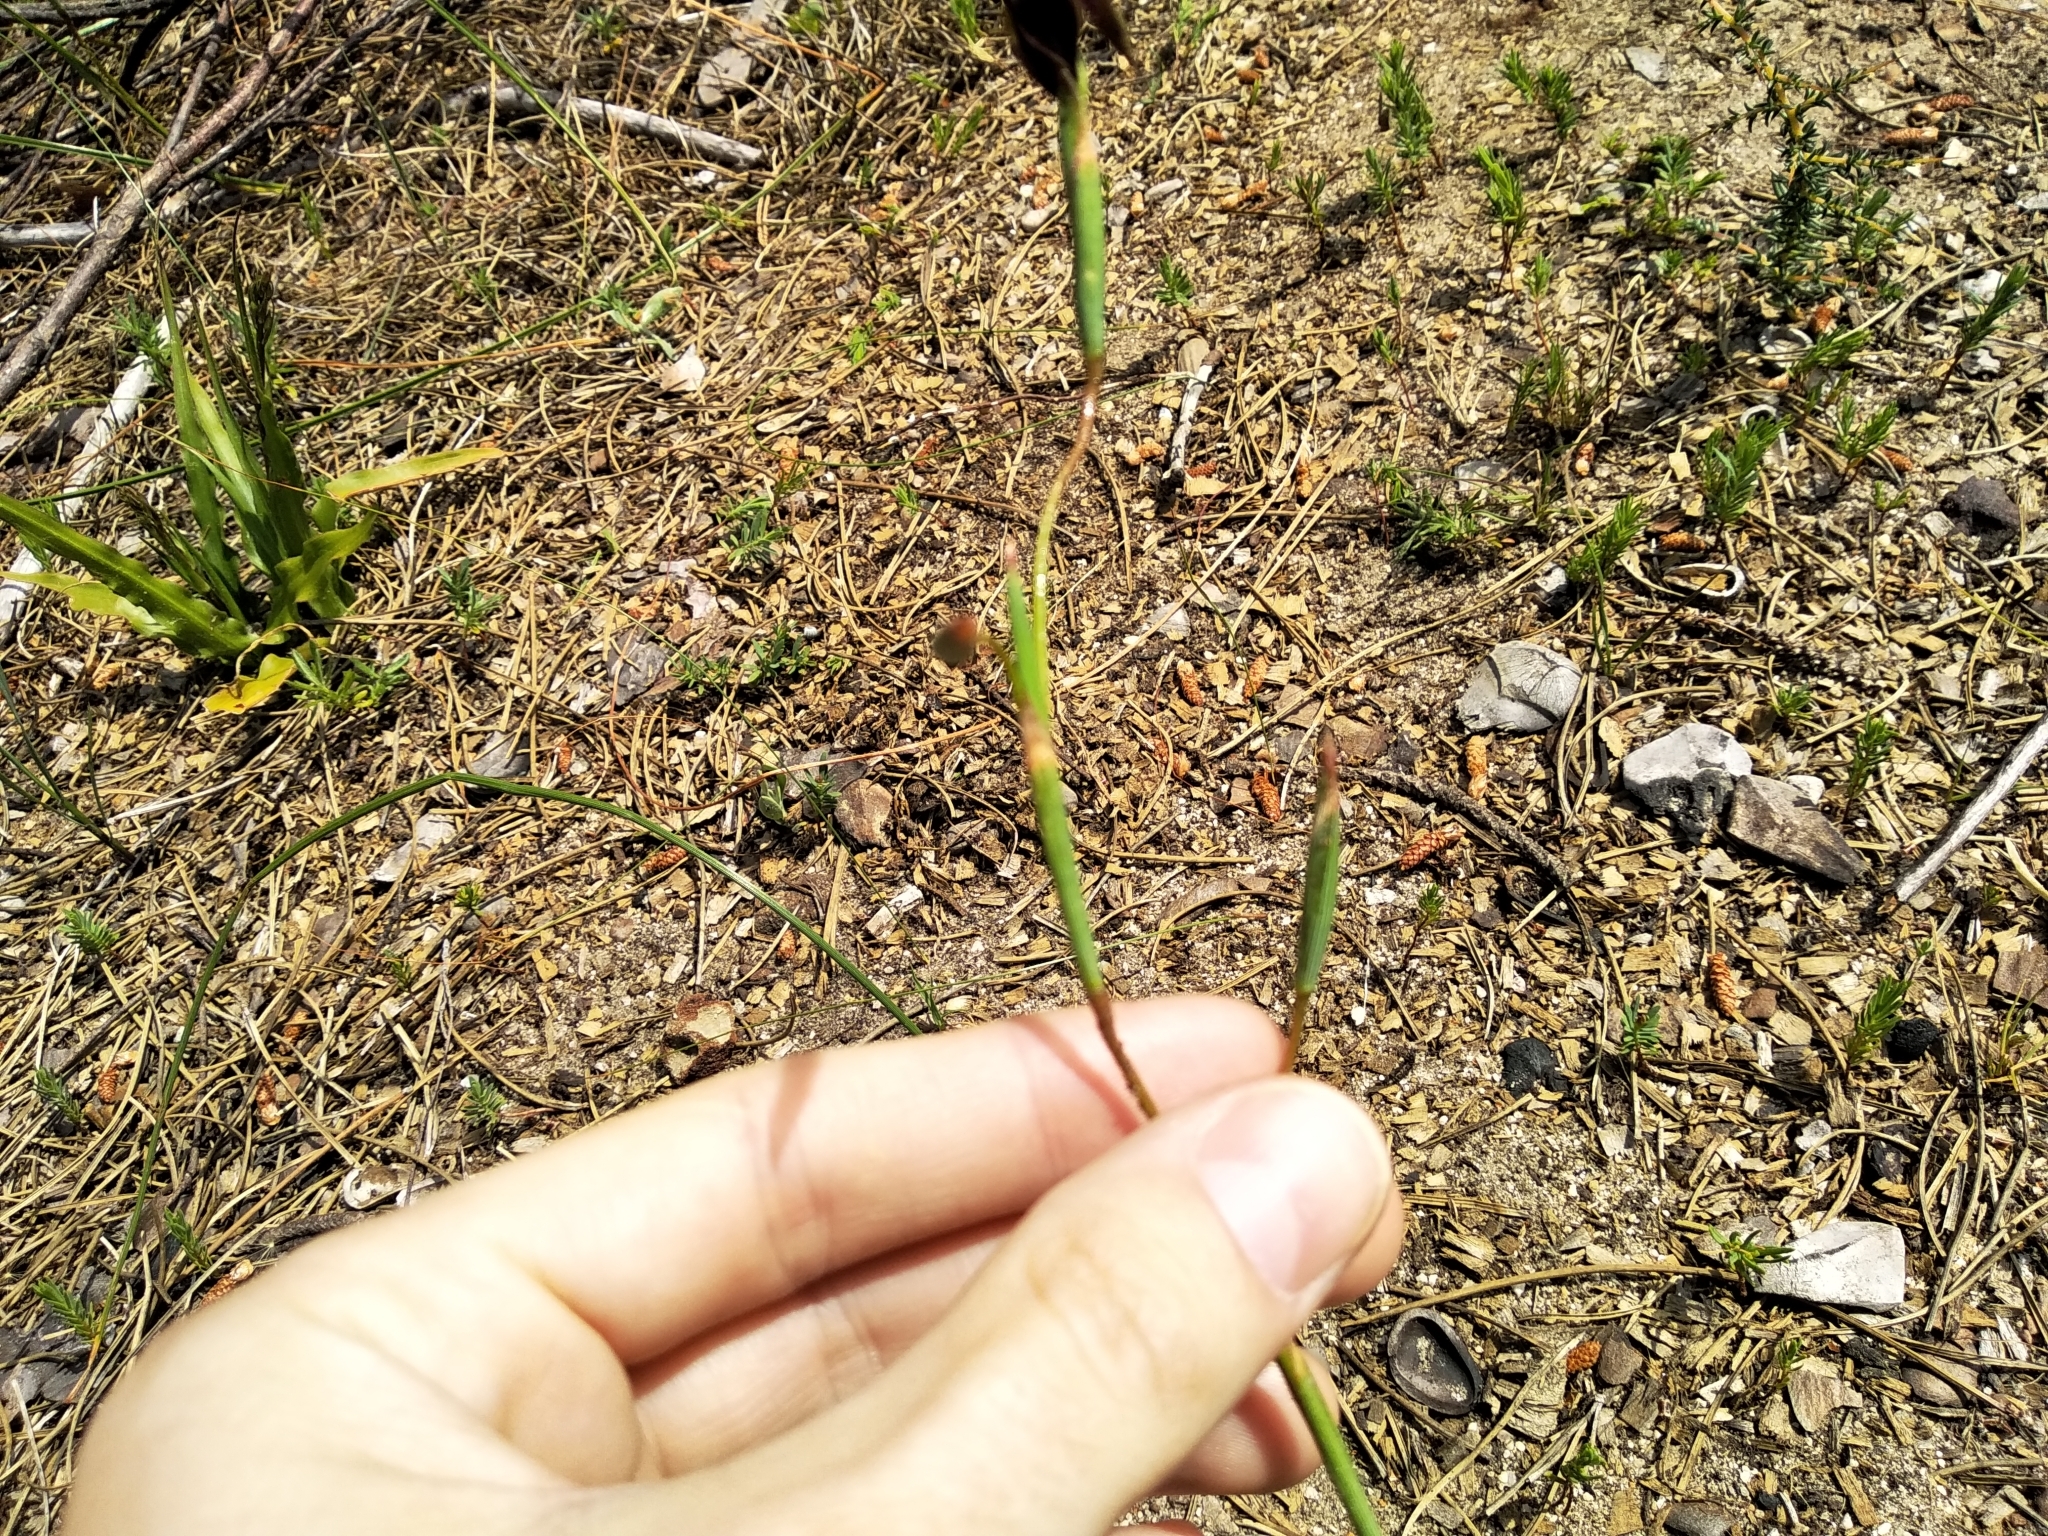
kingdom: Plantae
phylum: Tracheophyta
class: Liliopsida
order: Asparagales
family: Iridaceae
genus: Moraea
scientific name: Moraea inconspicua
